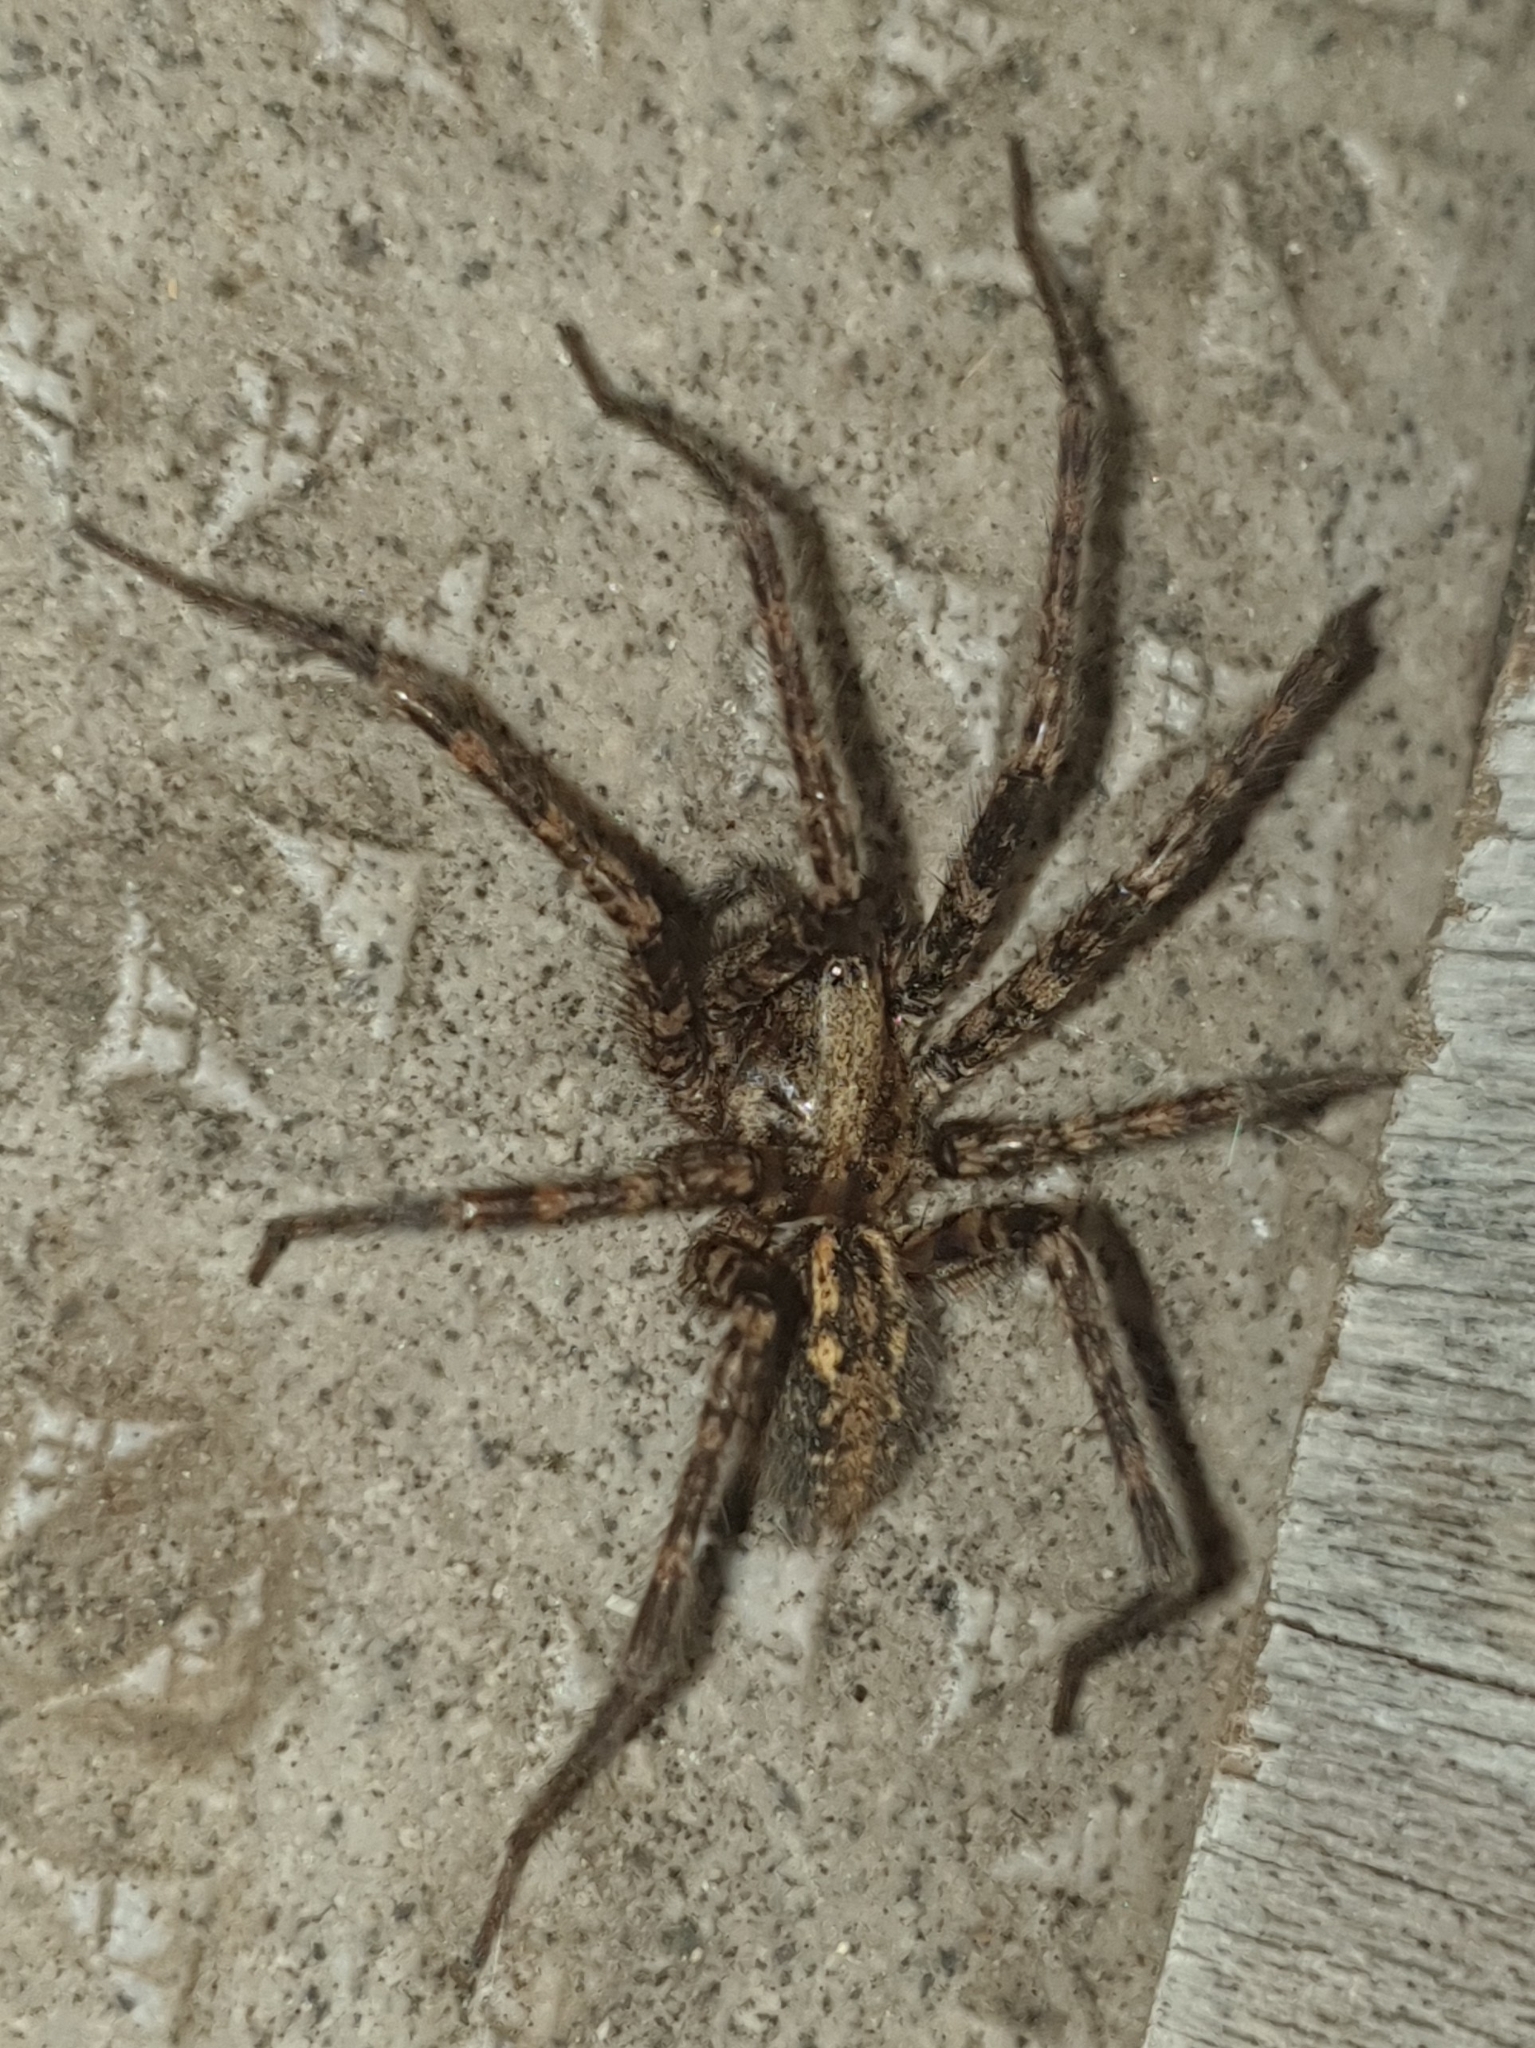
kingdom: Animalia
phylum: Arthropoda
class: Arachnida
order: Araneae
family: Agelenidae
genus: Tegenaria
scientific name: Tegenaria ferruginea
